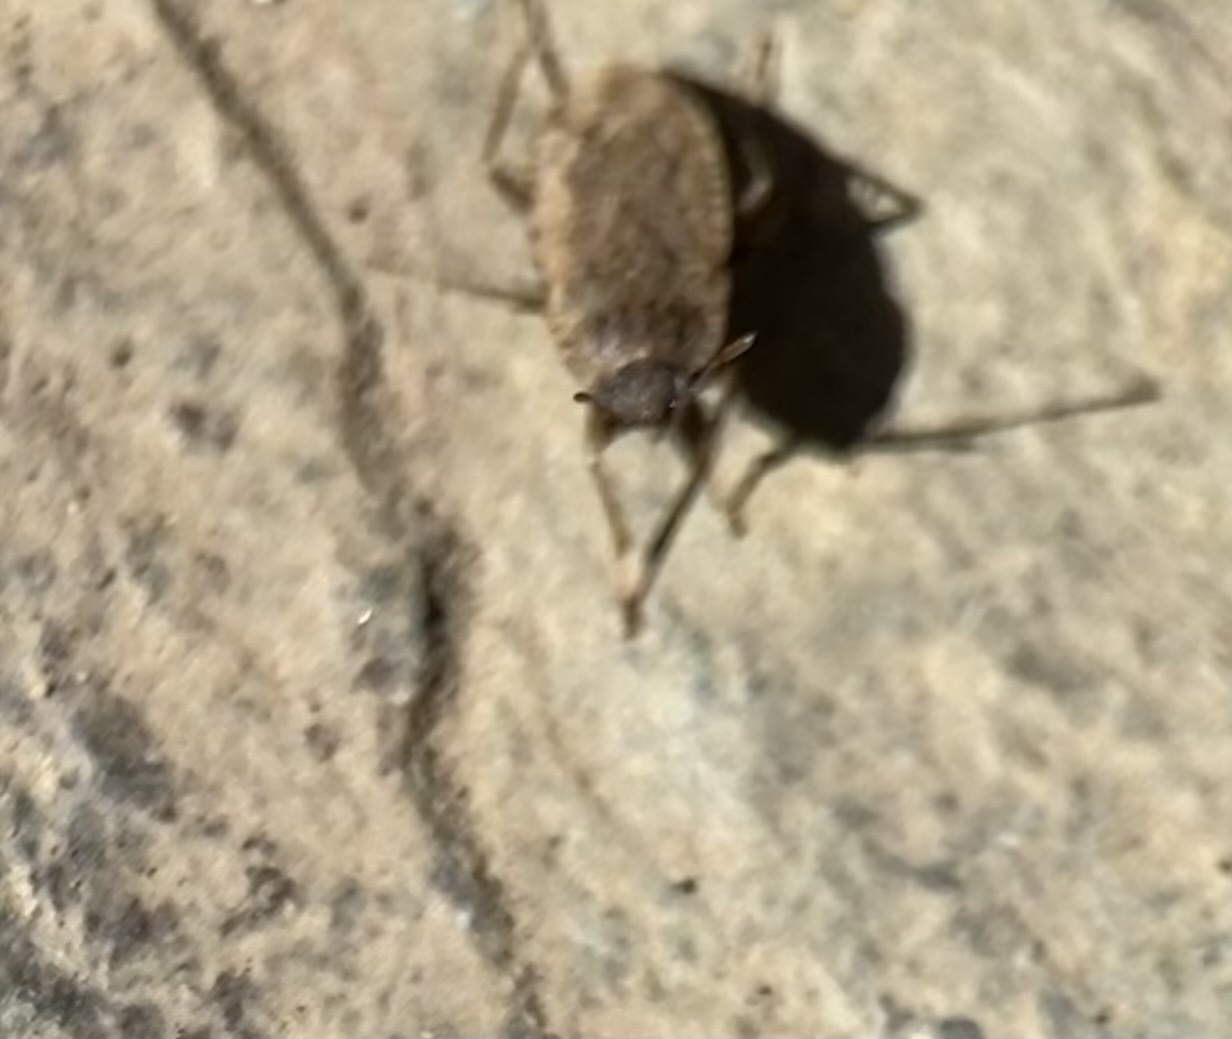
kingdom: Animalia
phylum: Arthropoda
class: Insecta
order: Hemiptera
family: Rhyparochromidae
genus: Emblethis
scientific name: Emblethis vicarius
